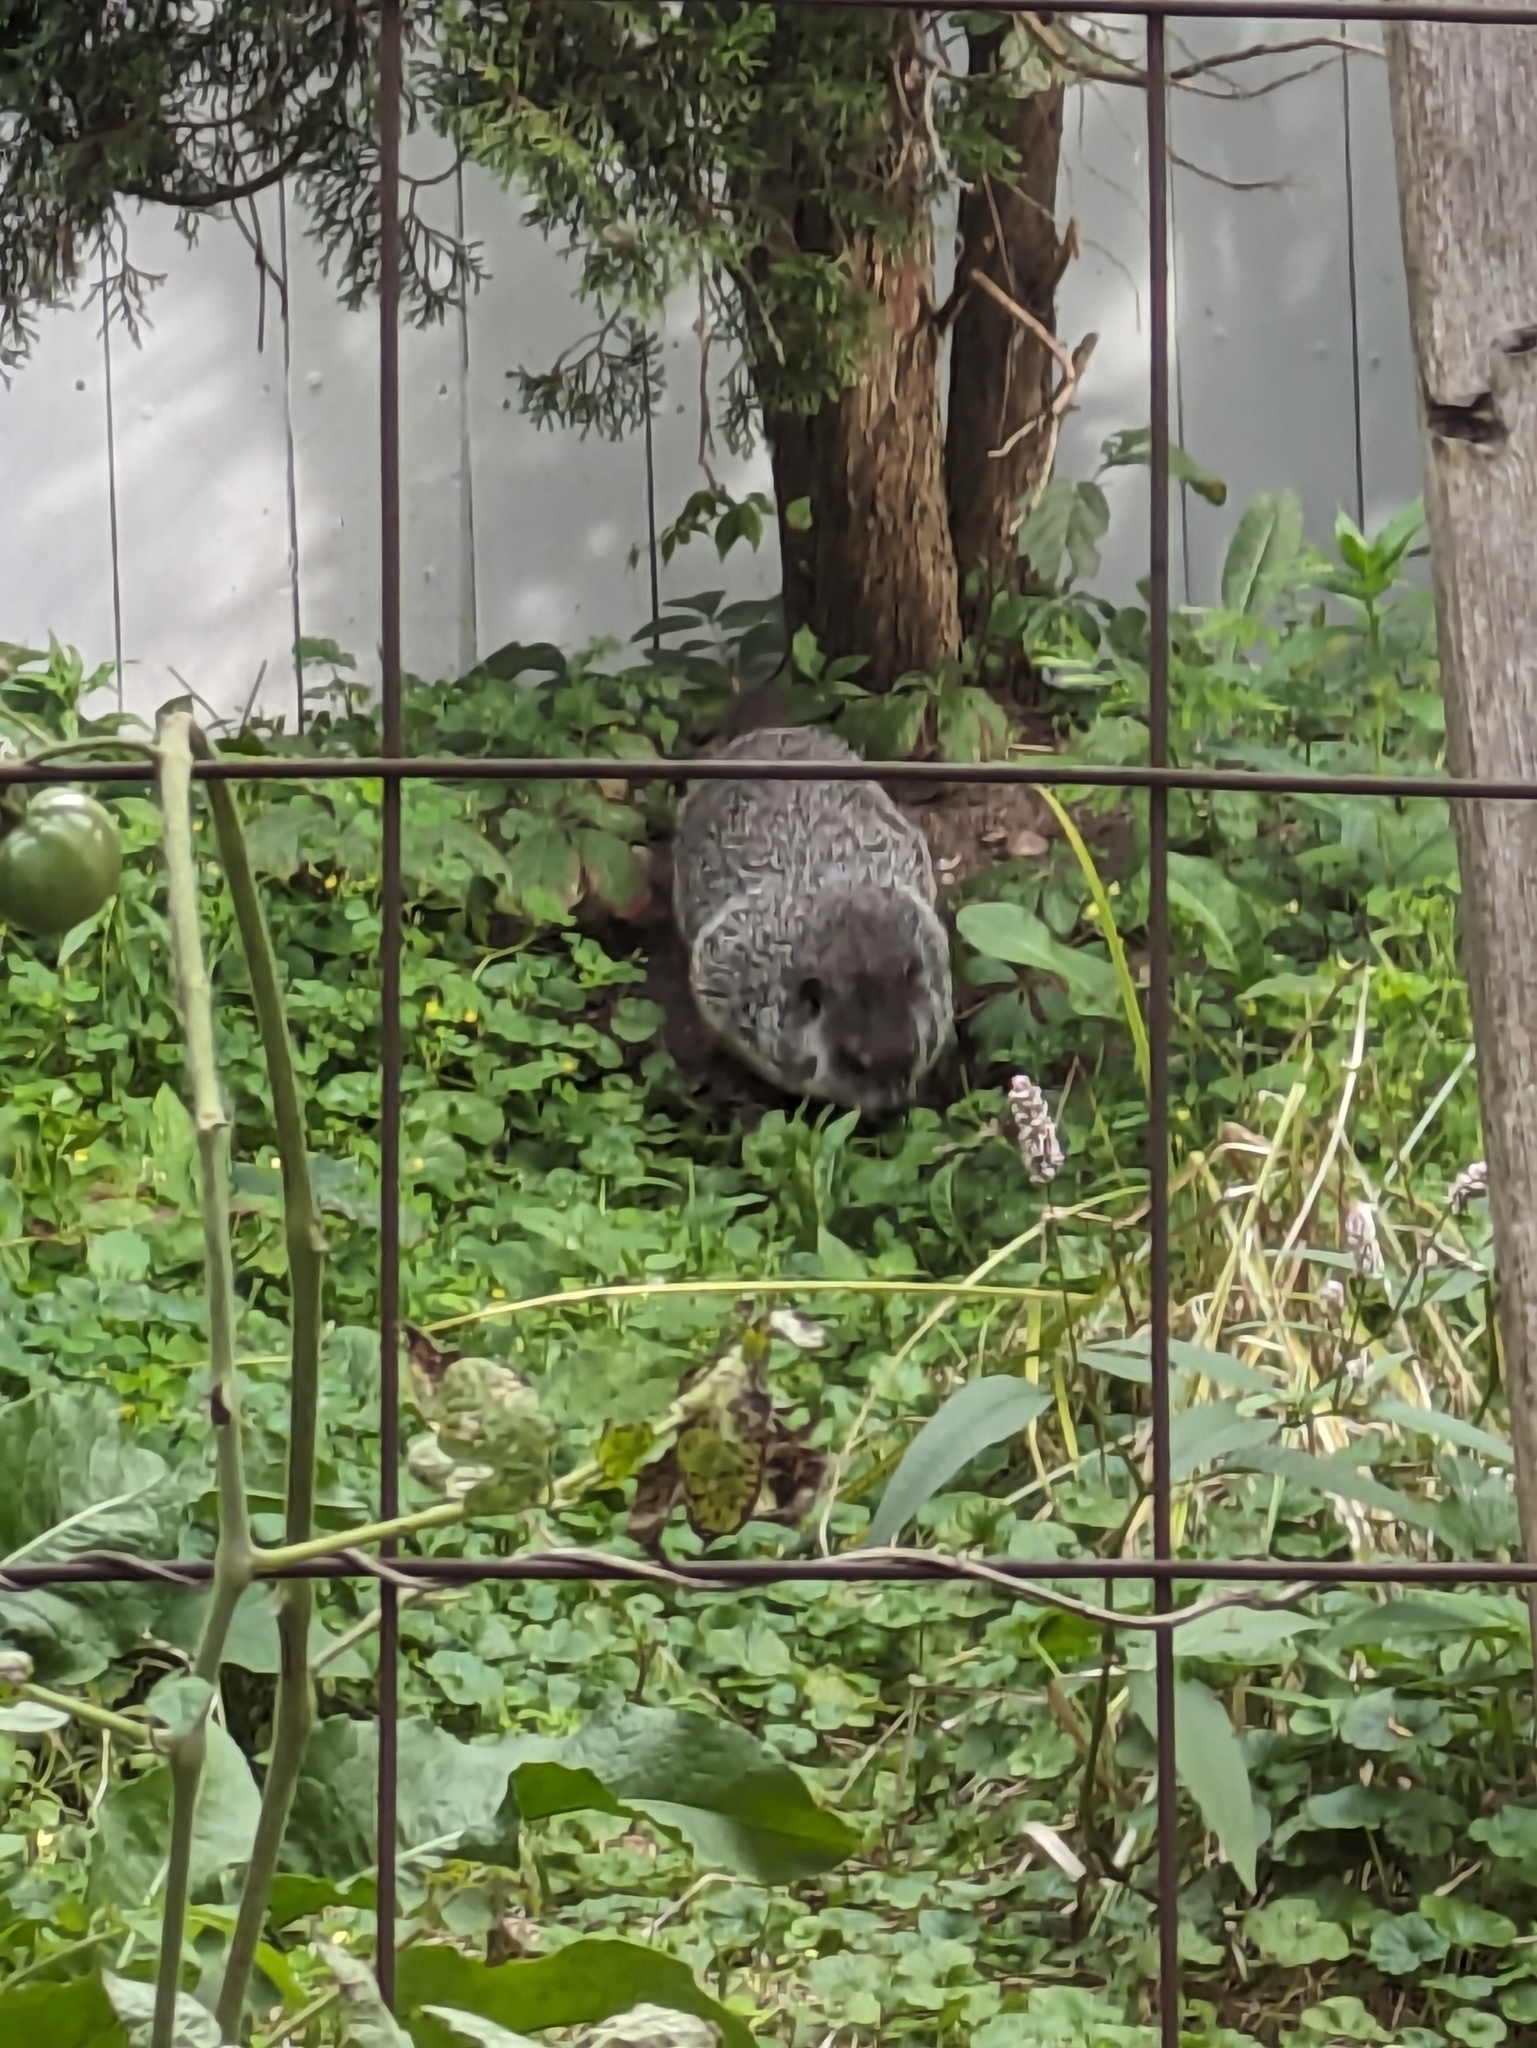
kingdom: Animalia
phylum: Chordata
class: Mammalia
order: Rodentia
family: Sciuridae
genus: Marmota
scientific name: Marmota monax
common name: Groundhog
